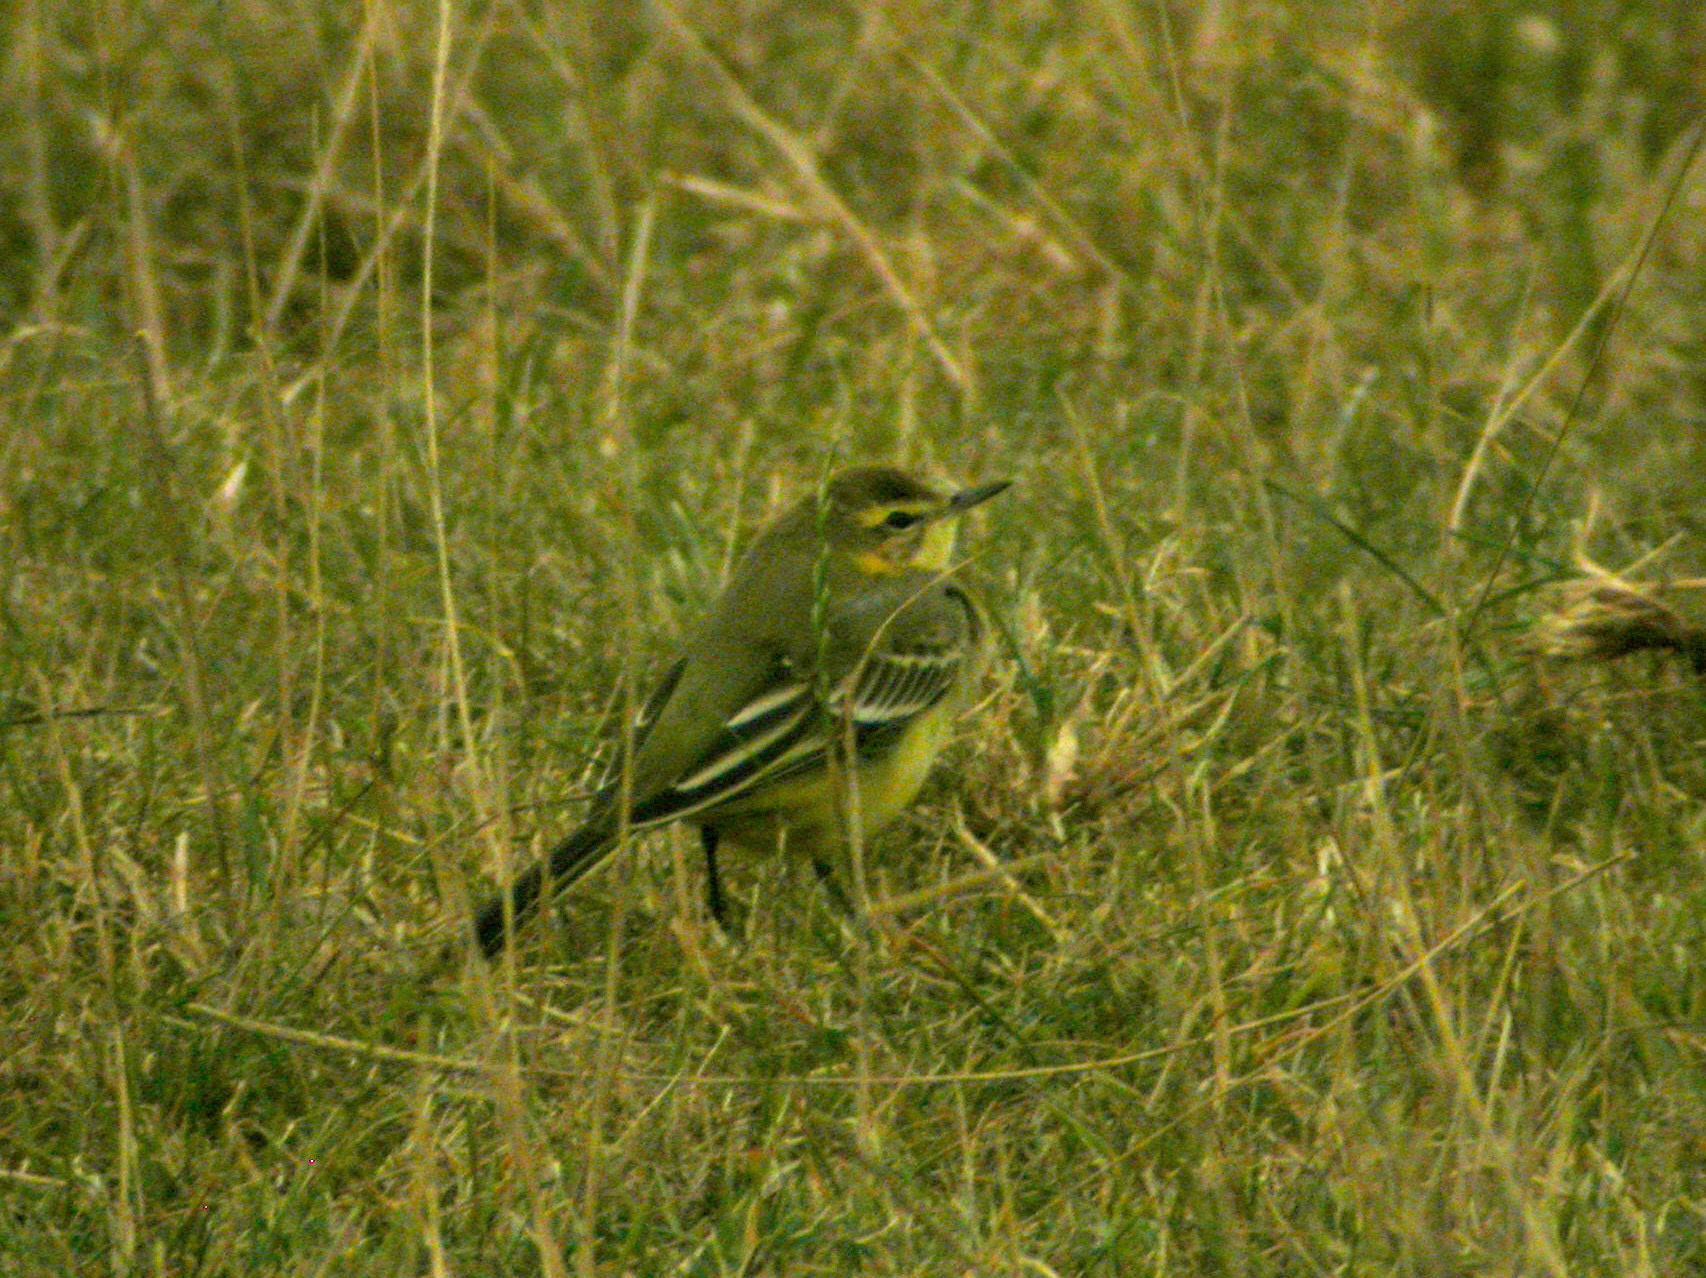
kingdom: Animalia
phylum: Chordata
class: Aves
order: Passeriformes
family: Motacillidae
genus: Motacilla
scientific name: Motacilla flava
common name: Western yellow wagtail
